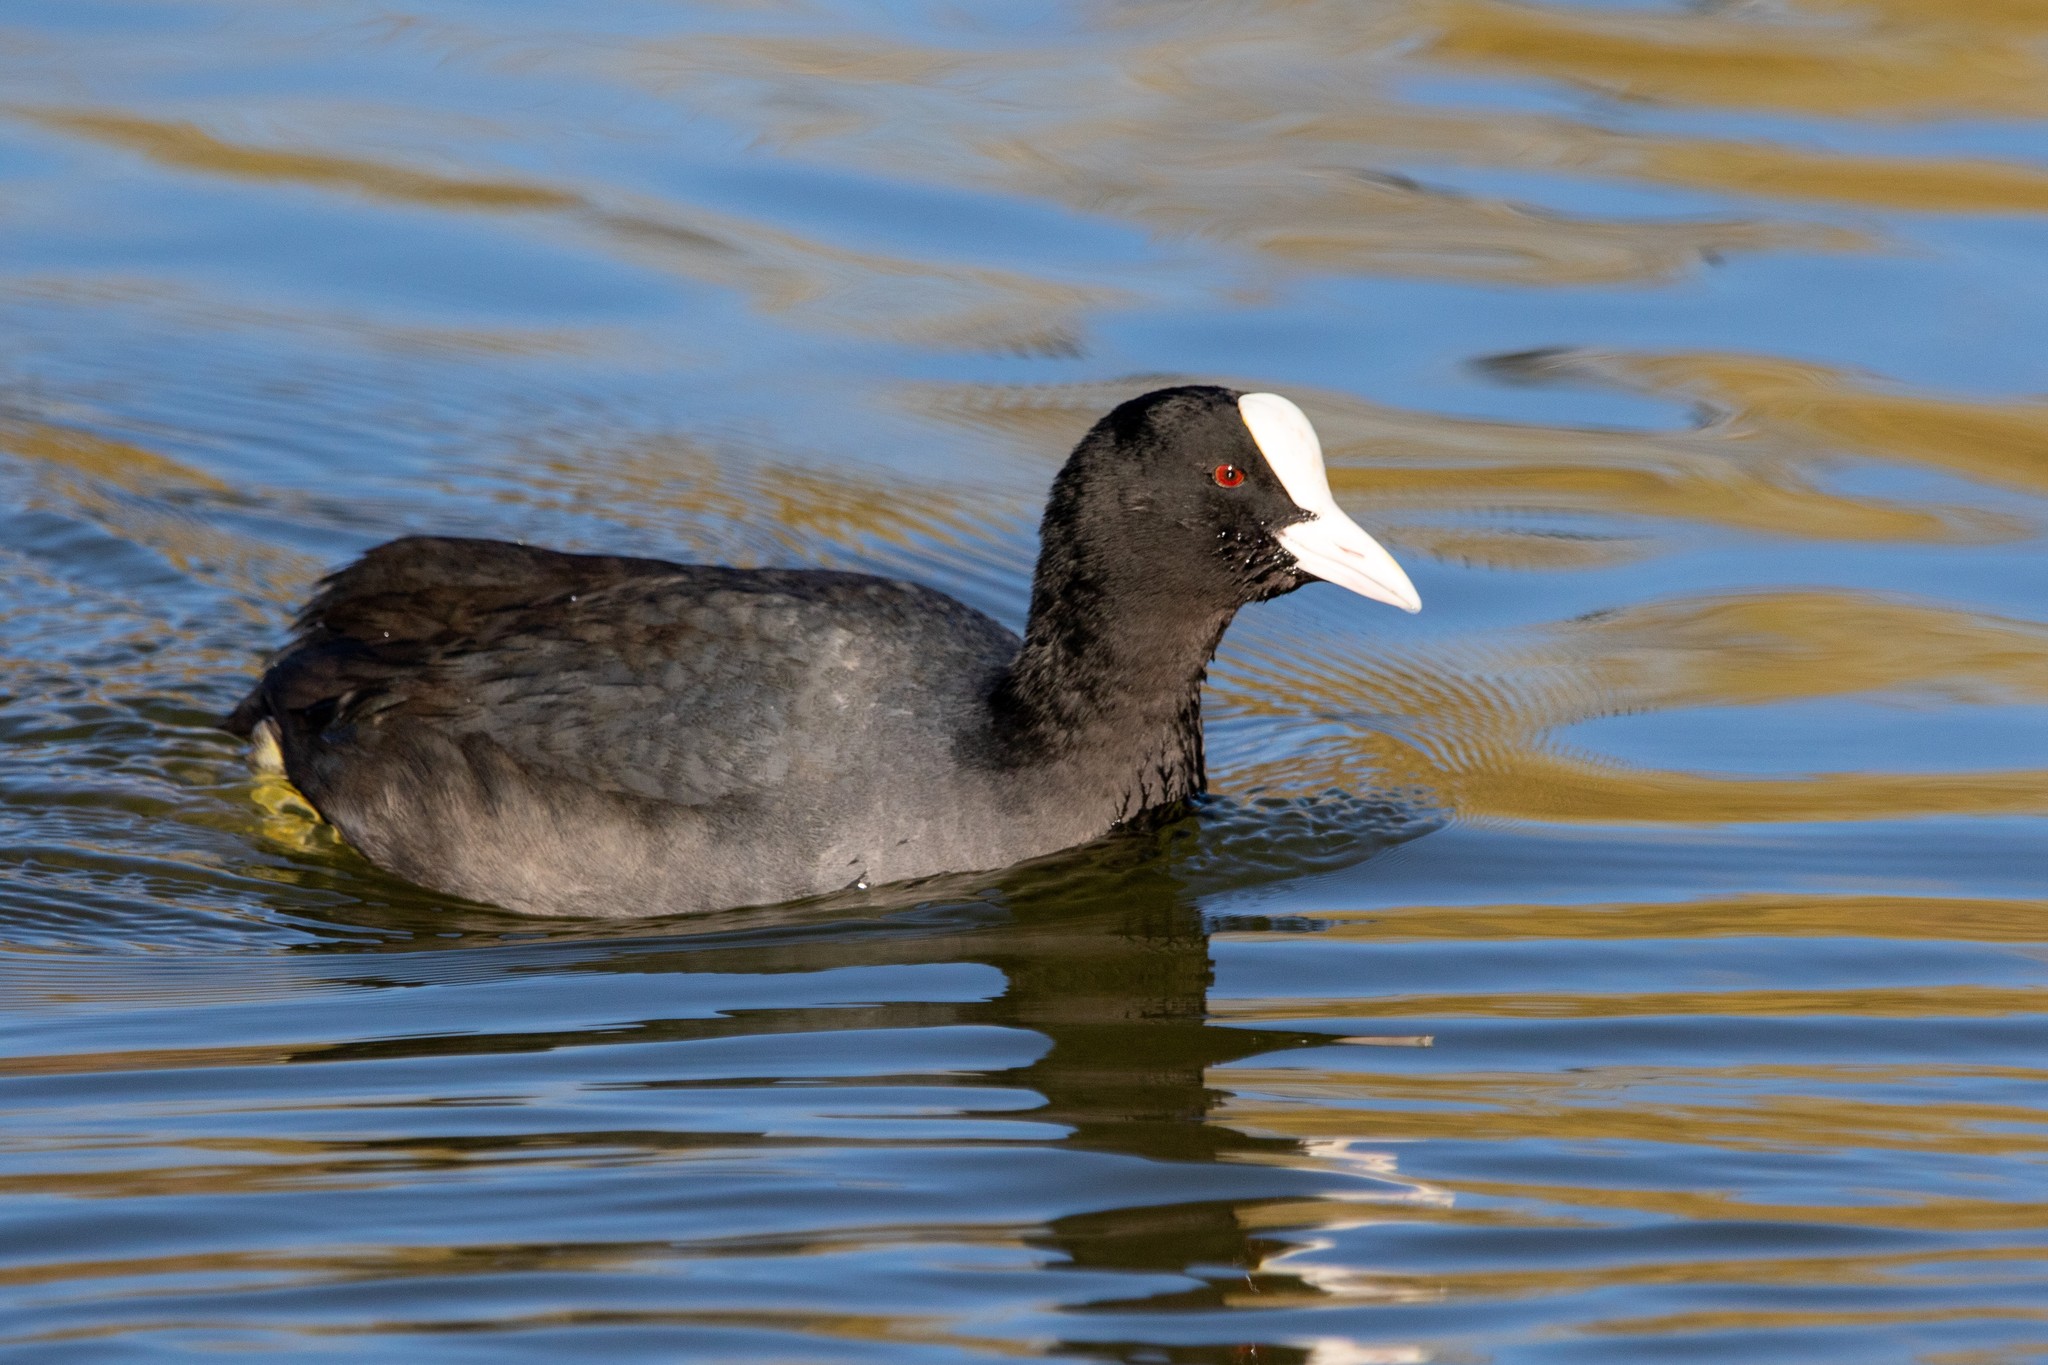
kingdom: Animalia
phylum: Chordata
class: Aves
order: Gruiformes
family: Rallidae
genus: Fulica
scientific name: Fulica atra
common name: Eurasian coot
